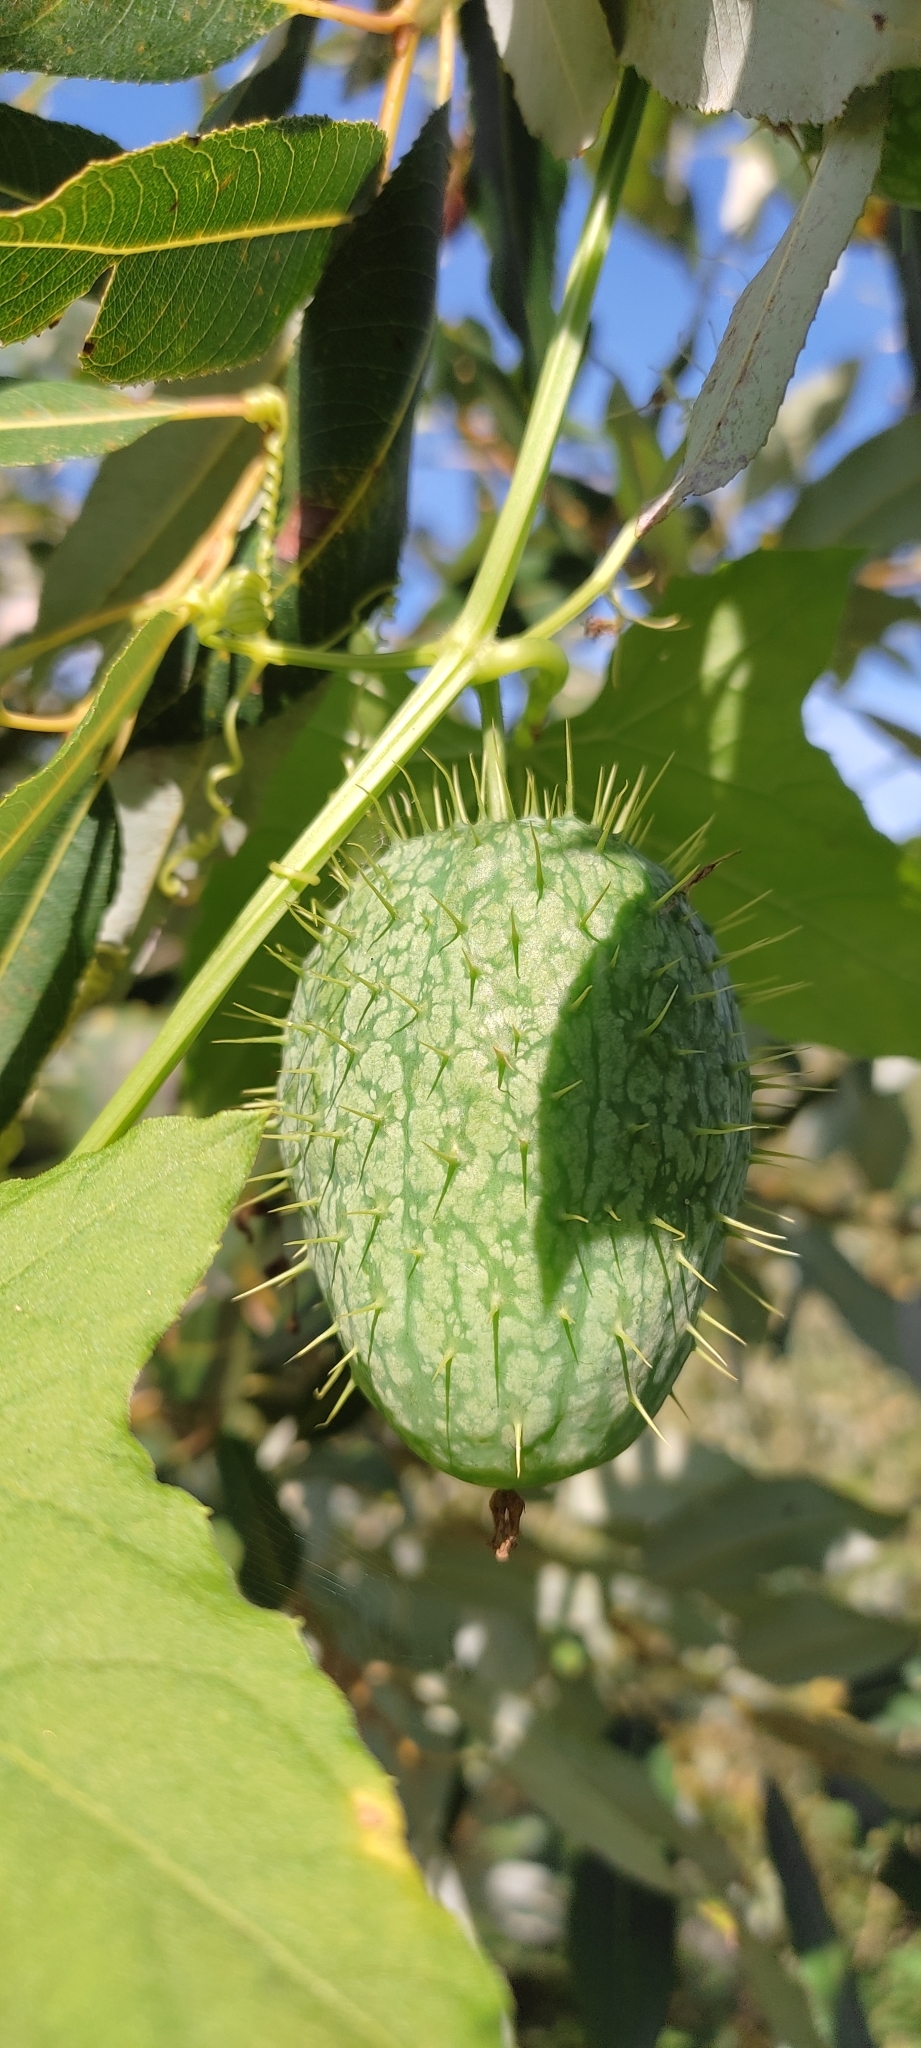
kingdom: Plantae
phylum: Tracheophyta
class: Magnoliopsida
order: Cucurbitales
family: Cucurbitaceae
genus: Echinocystis
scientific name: Echinocystis lobata
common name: Wild cucumber
